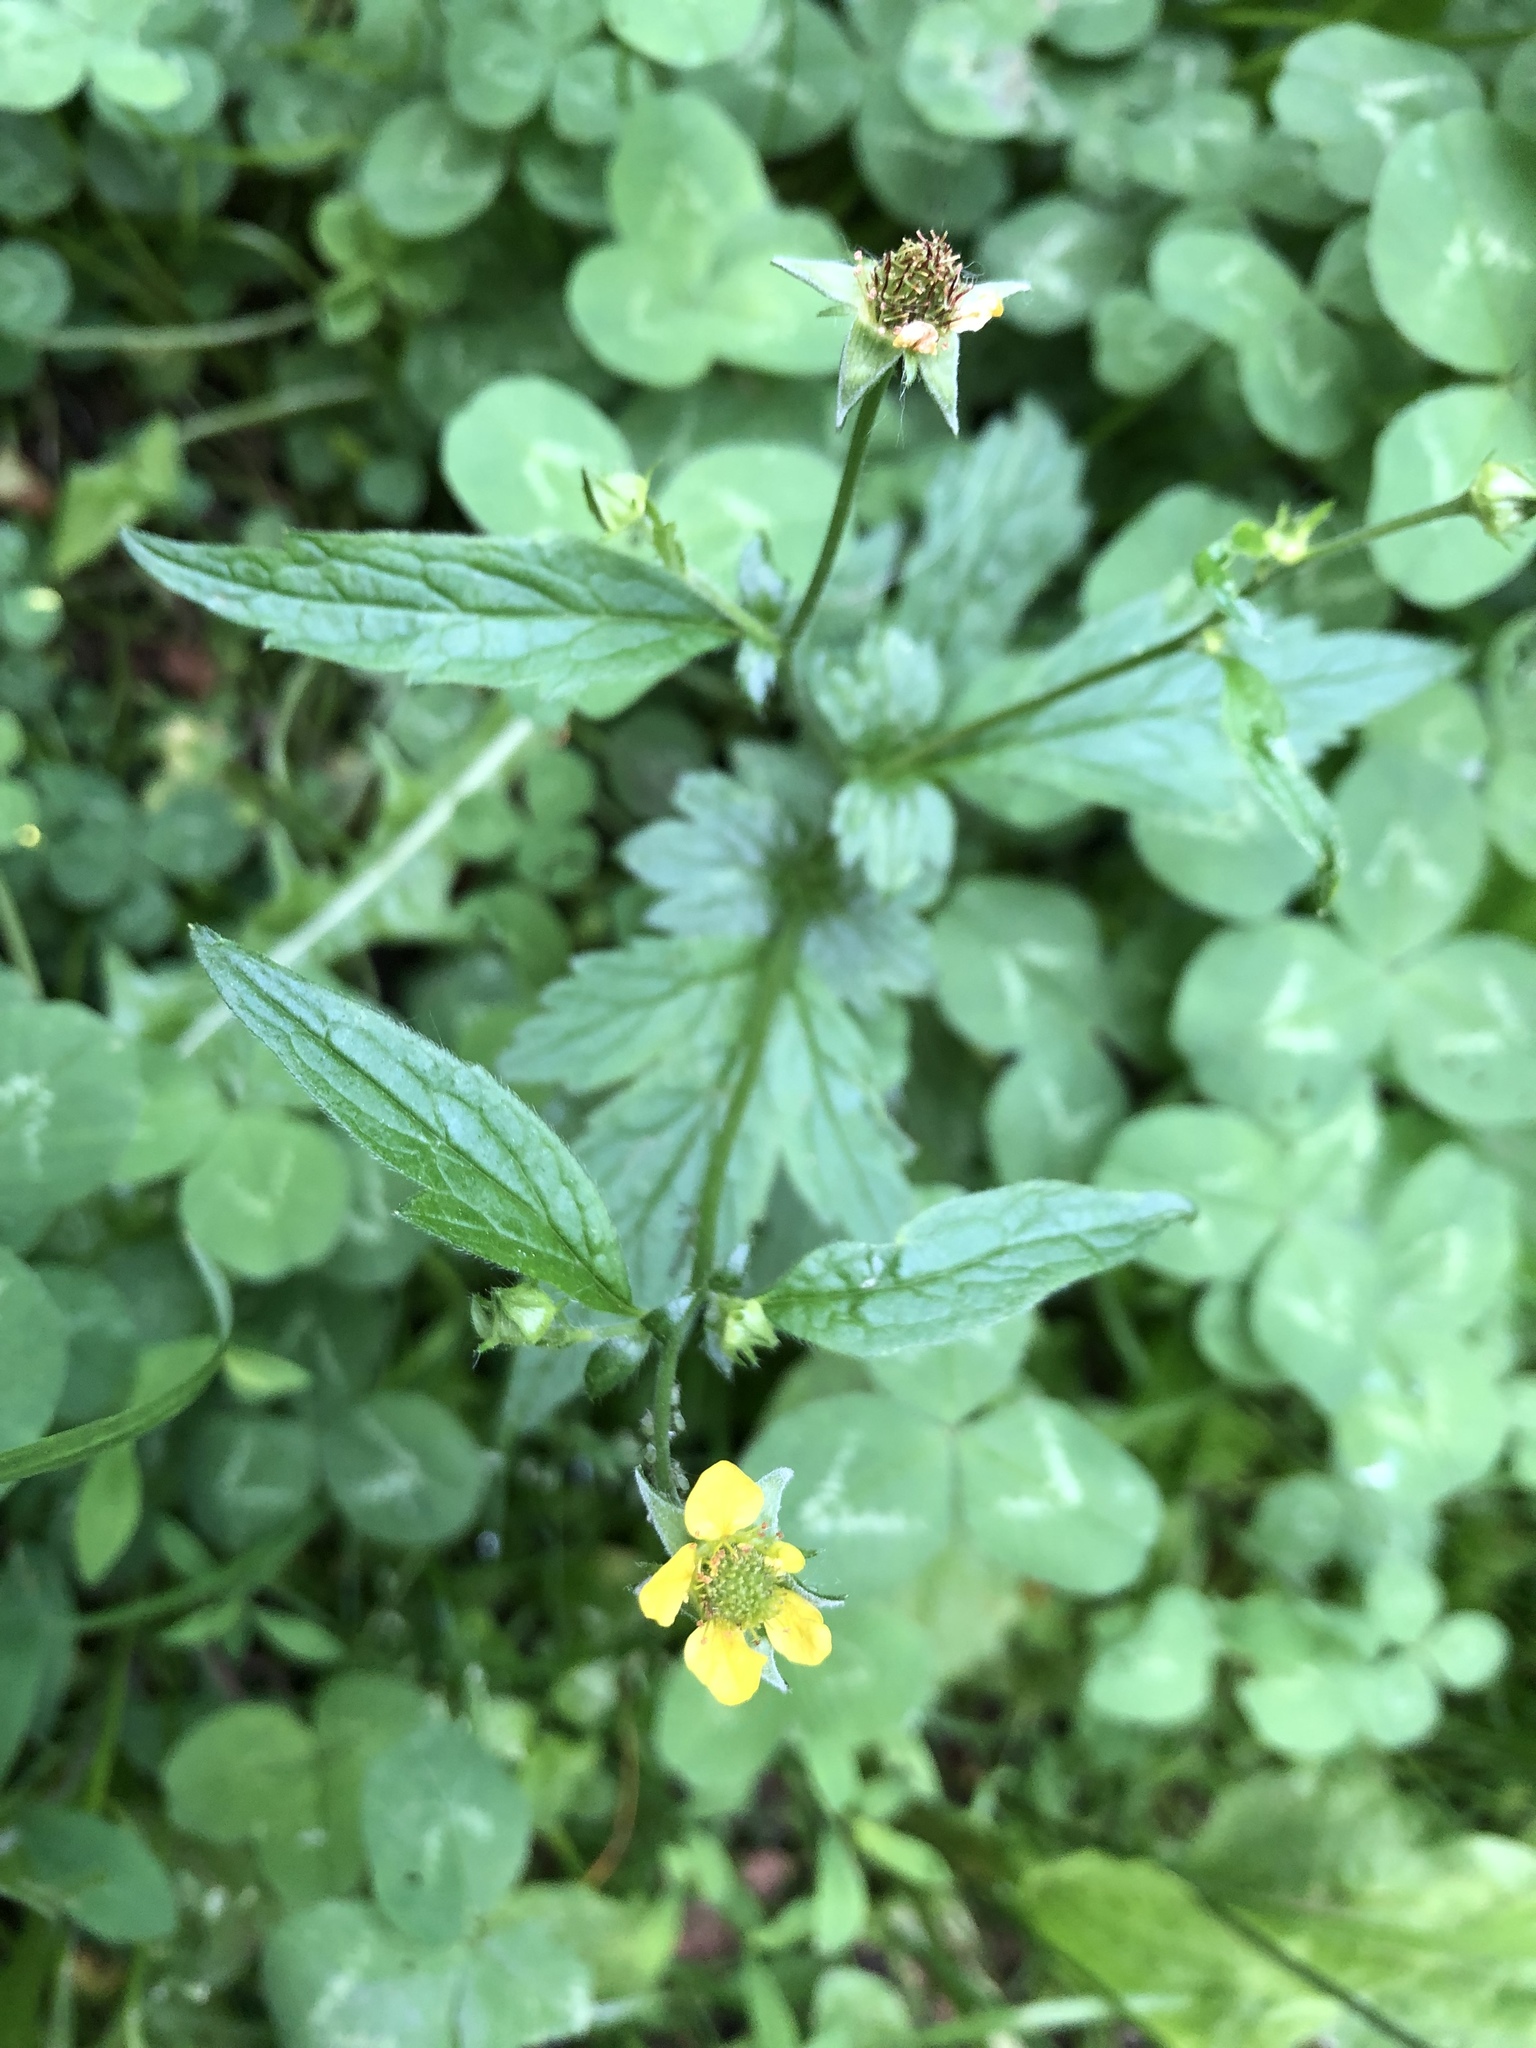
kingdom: Plantae
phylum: Tracheophyta
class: Magnoliopsida
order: Rosales
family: Rosaceae
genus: Geum
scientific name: Geum urbanum
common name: Wood avens
